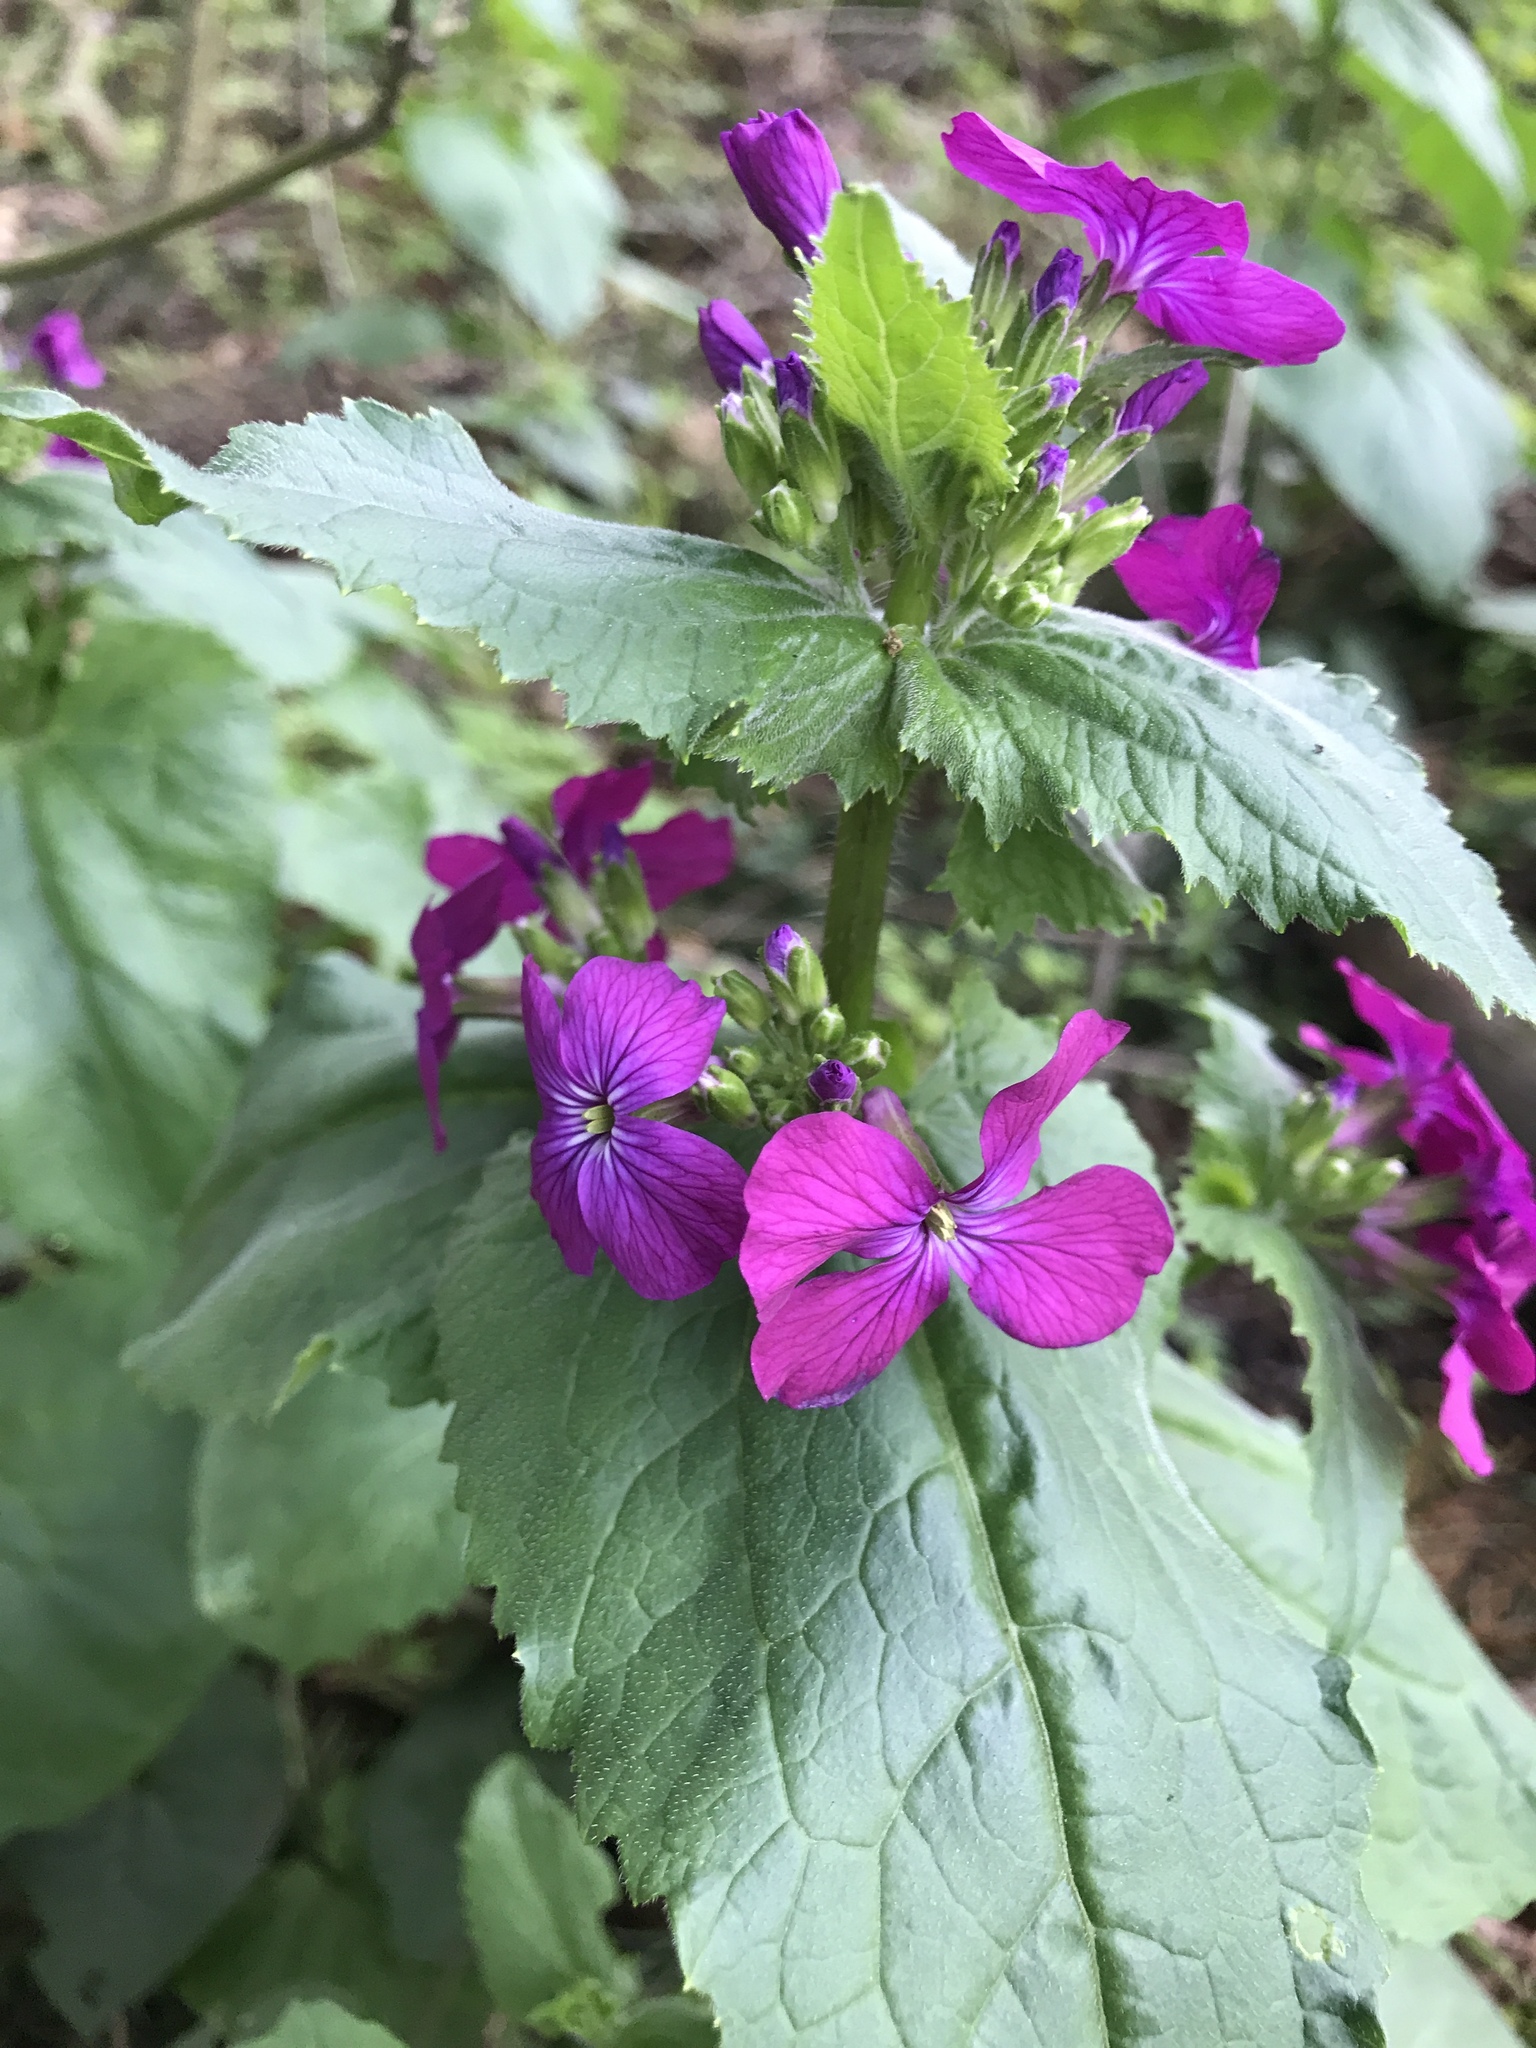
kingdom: Plantae
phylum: Tracheophyta
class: Magnoliopsida
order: Brassicales
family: Brassicaceae
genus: Lunaria
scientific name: Lunaria annua
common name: Honesty
